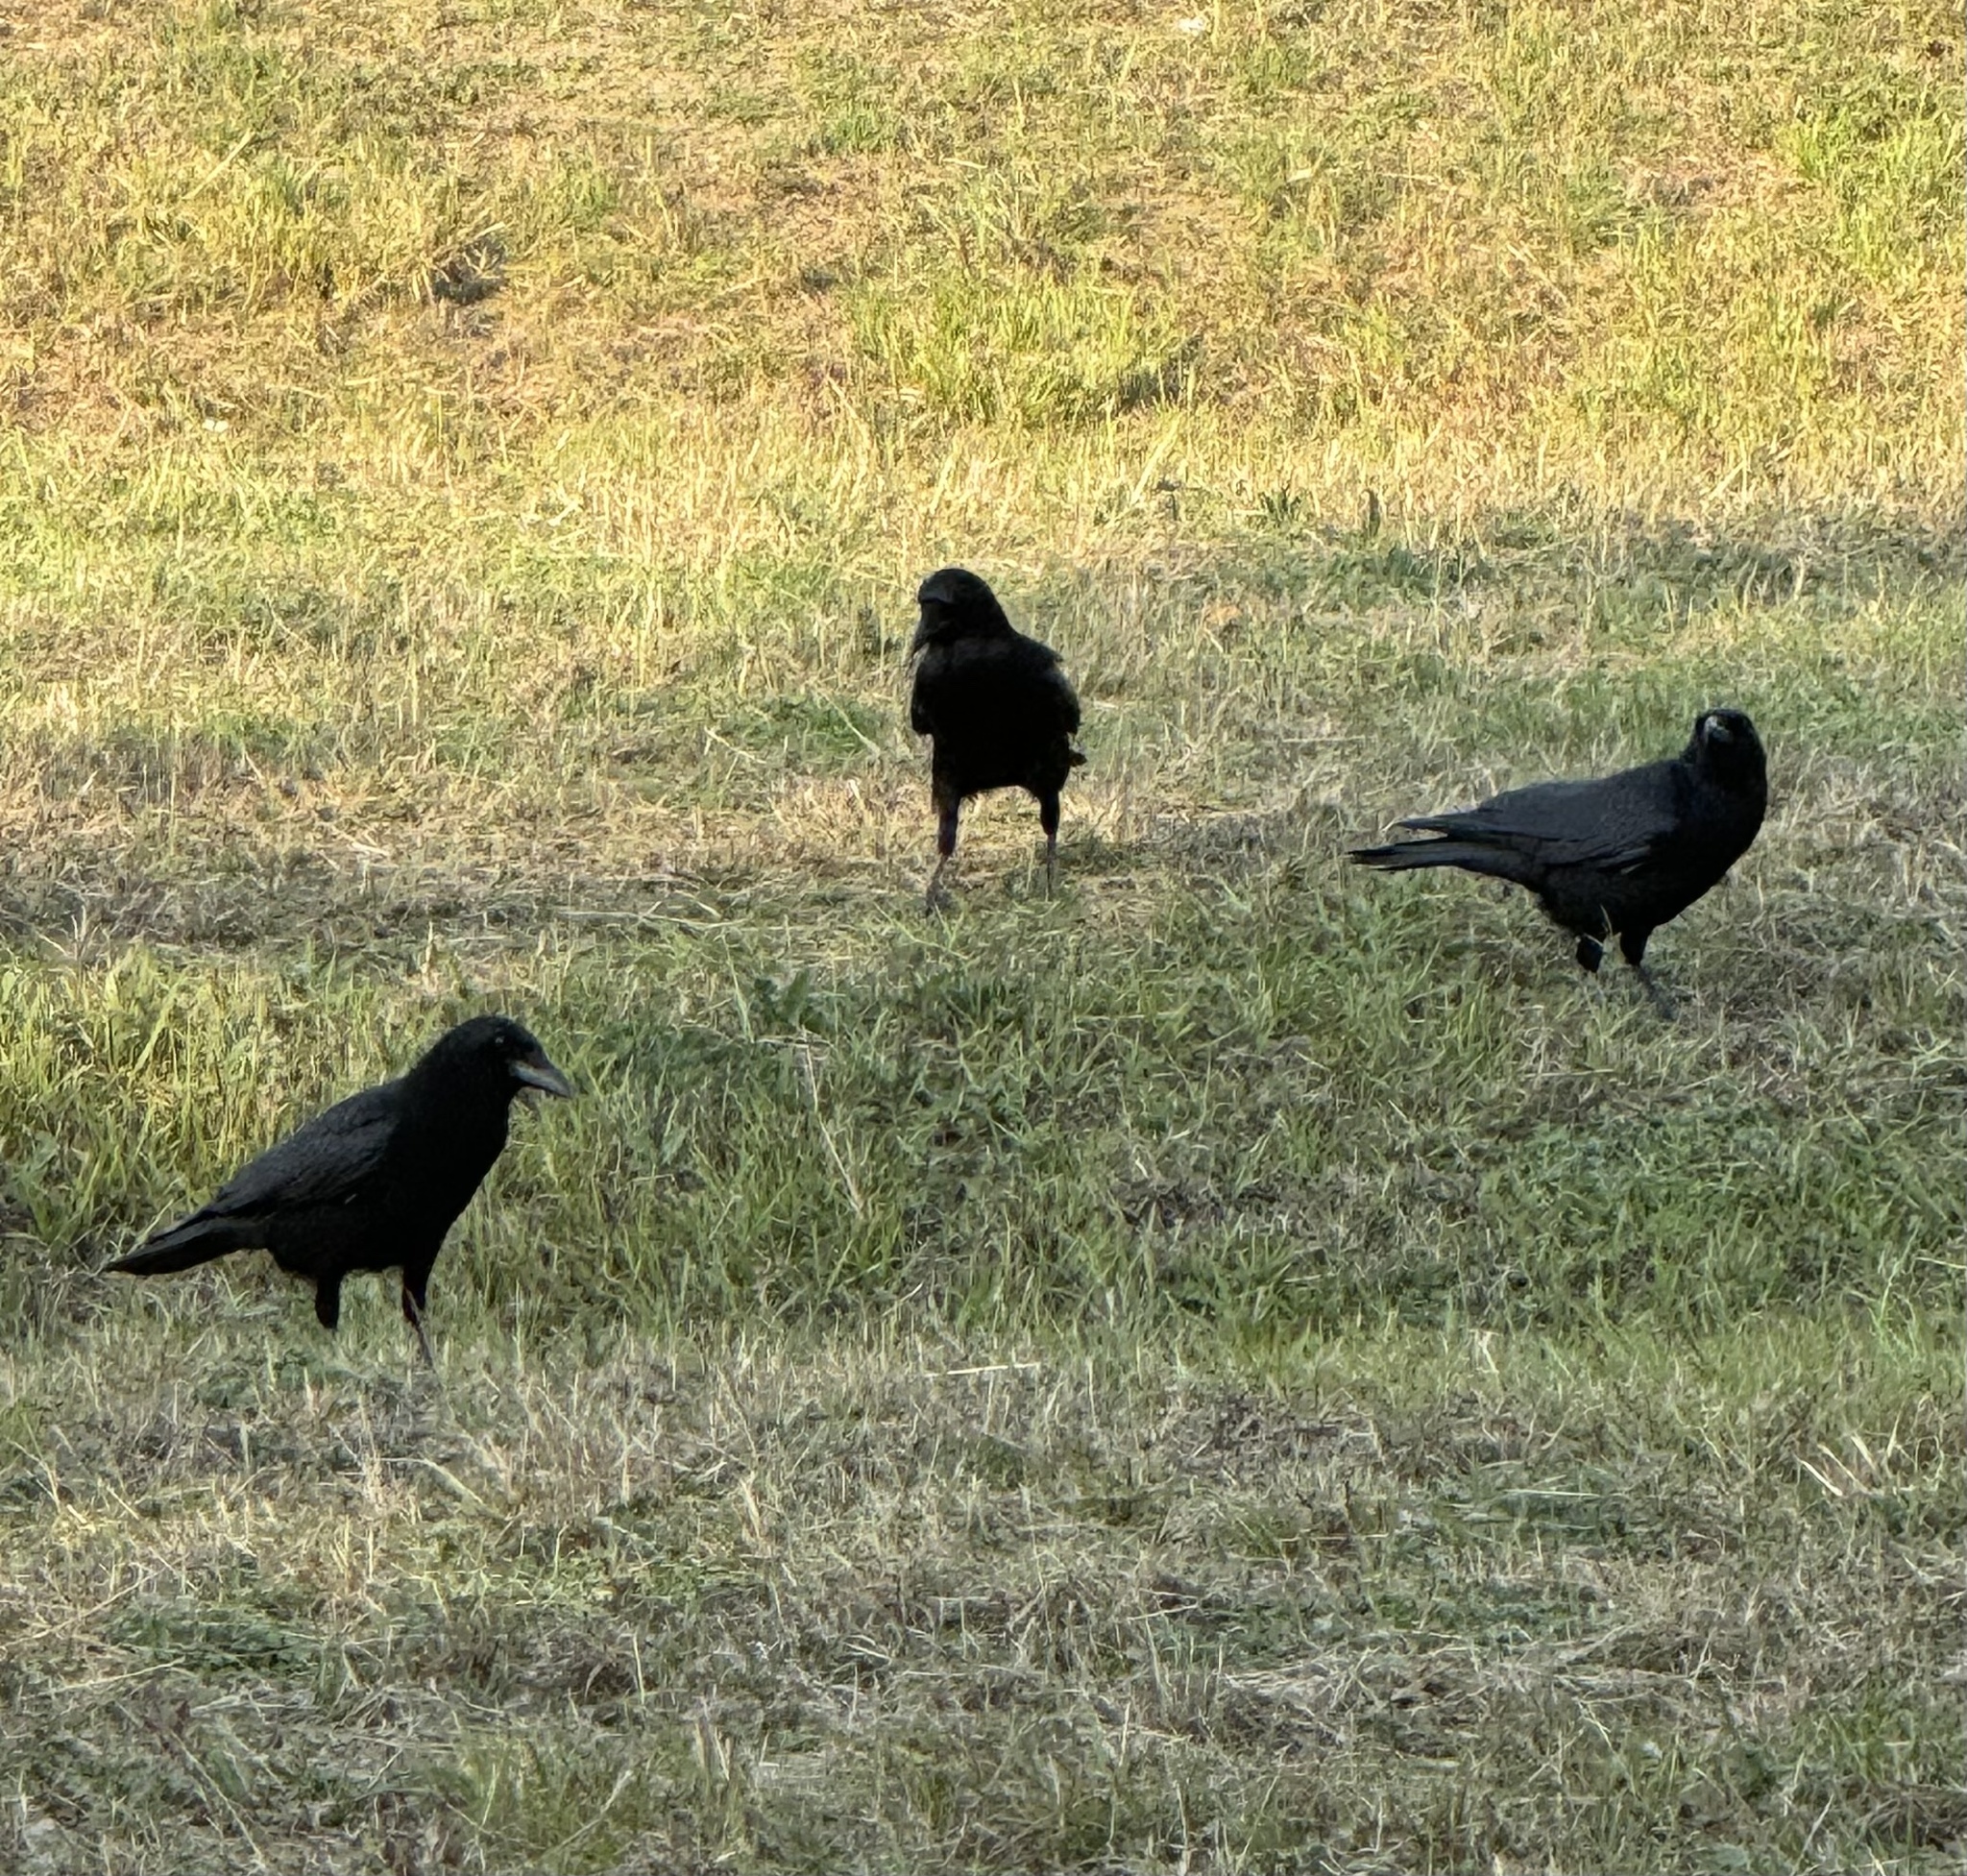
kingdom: Animalia
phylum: Chordata
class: Aves
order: Passeriformes
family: Corvidae
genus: Corvus
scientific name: Corvus brachyrhynchos
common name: American crow
